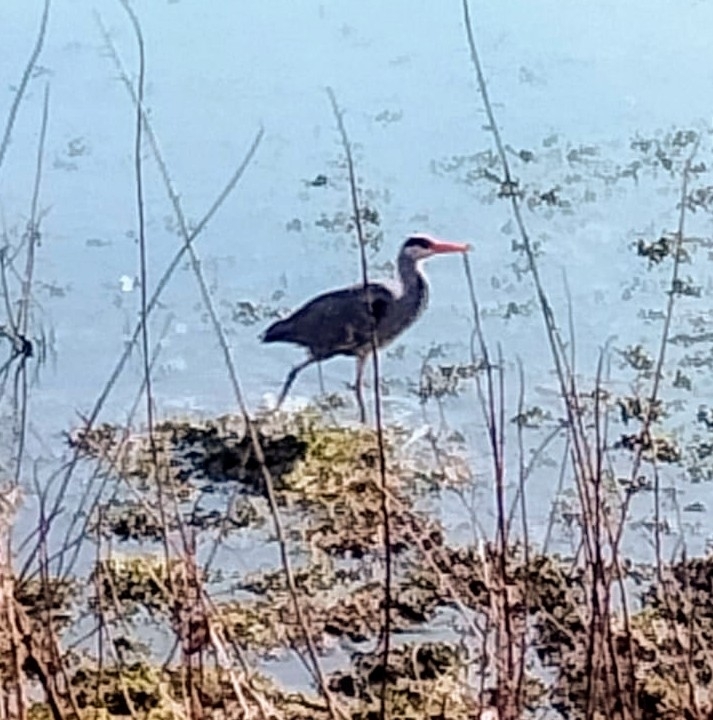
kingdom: Animalia
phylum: Chordata
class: Aves
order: Pelecaniformes
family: Ardeidae
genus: Ardea
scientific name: Ardea cinerea
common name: Grey heron
